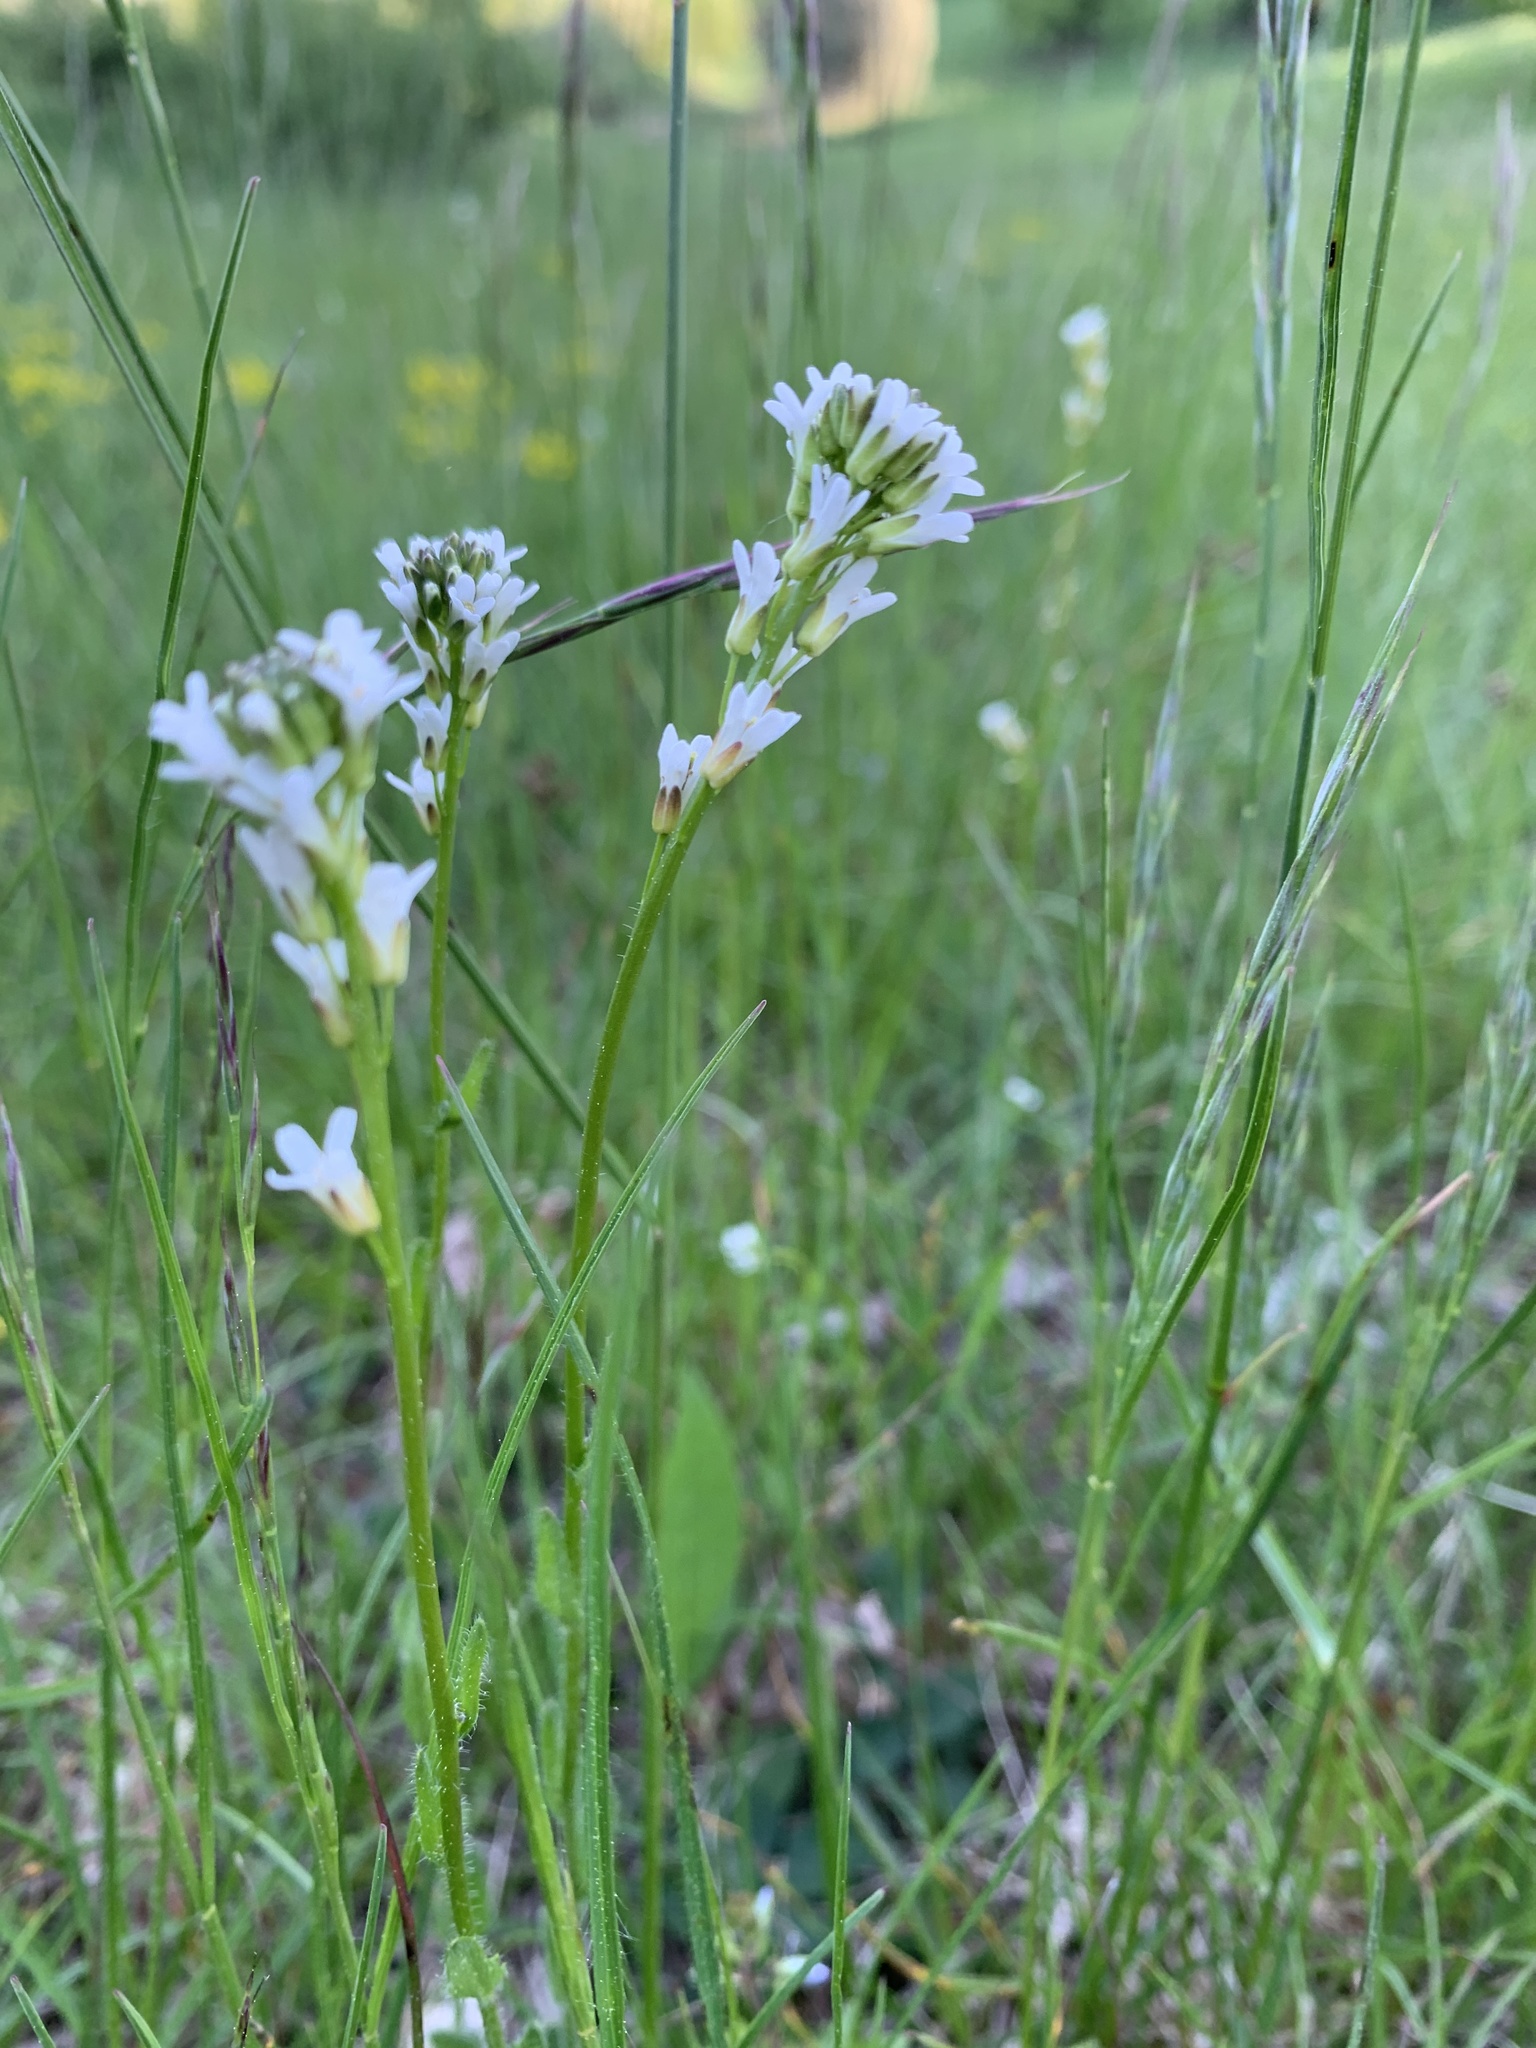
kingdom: Plantae
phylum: Tracheophyta
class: Magnoliopsida
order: Brassicales
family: Brassicaceae
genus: Arabis
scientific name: Arabis hirsuta
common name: Hairy rock-cress
